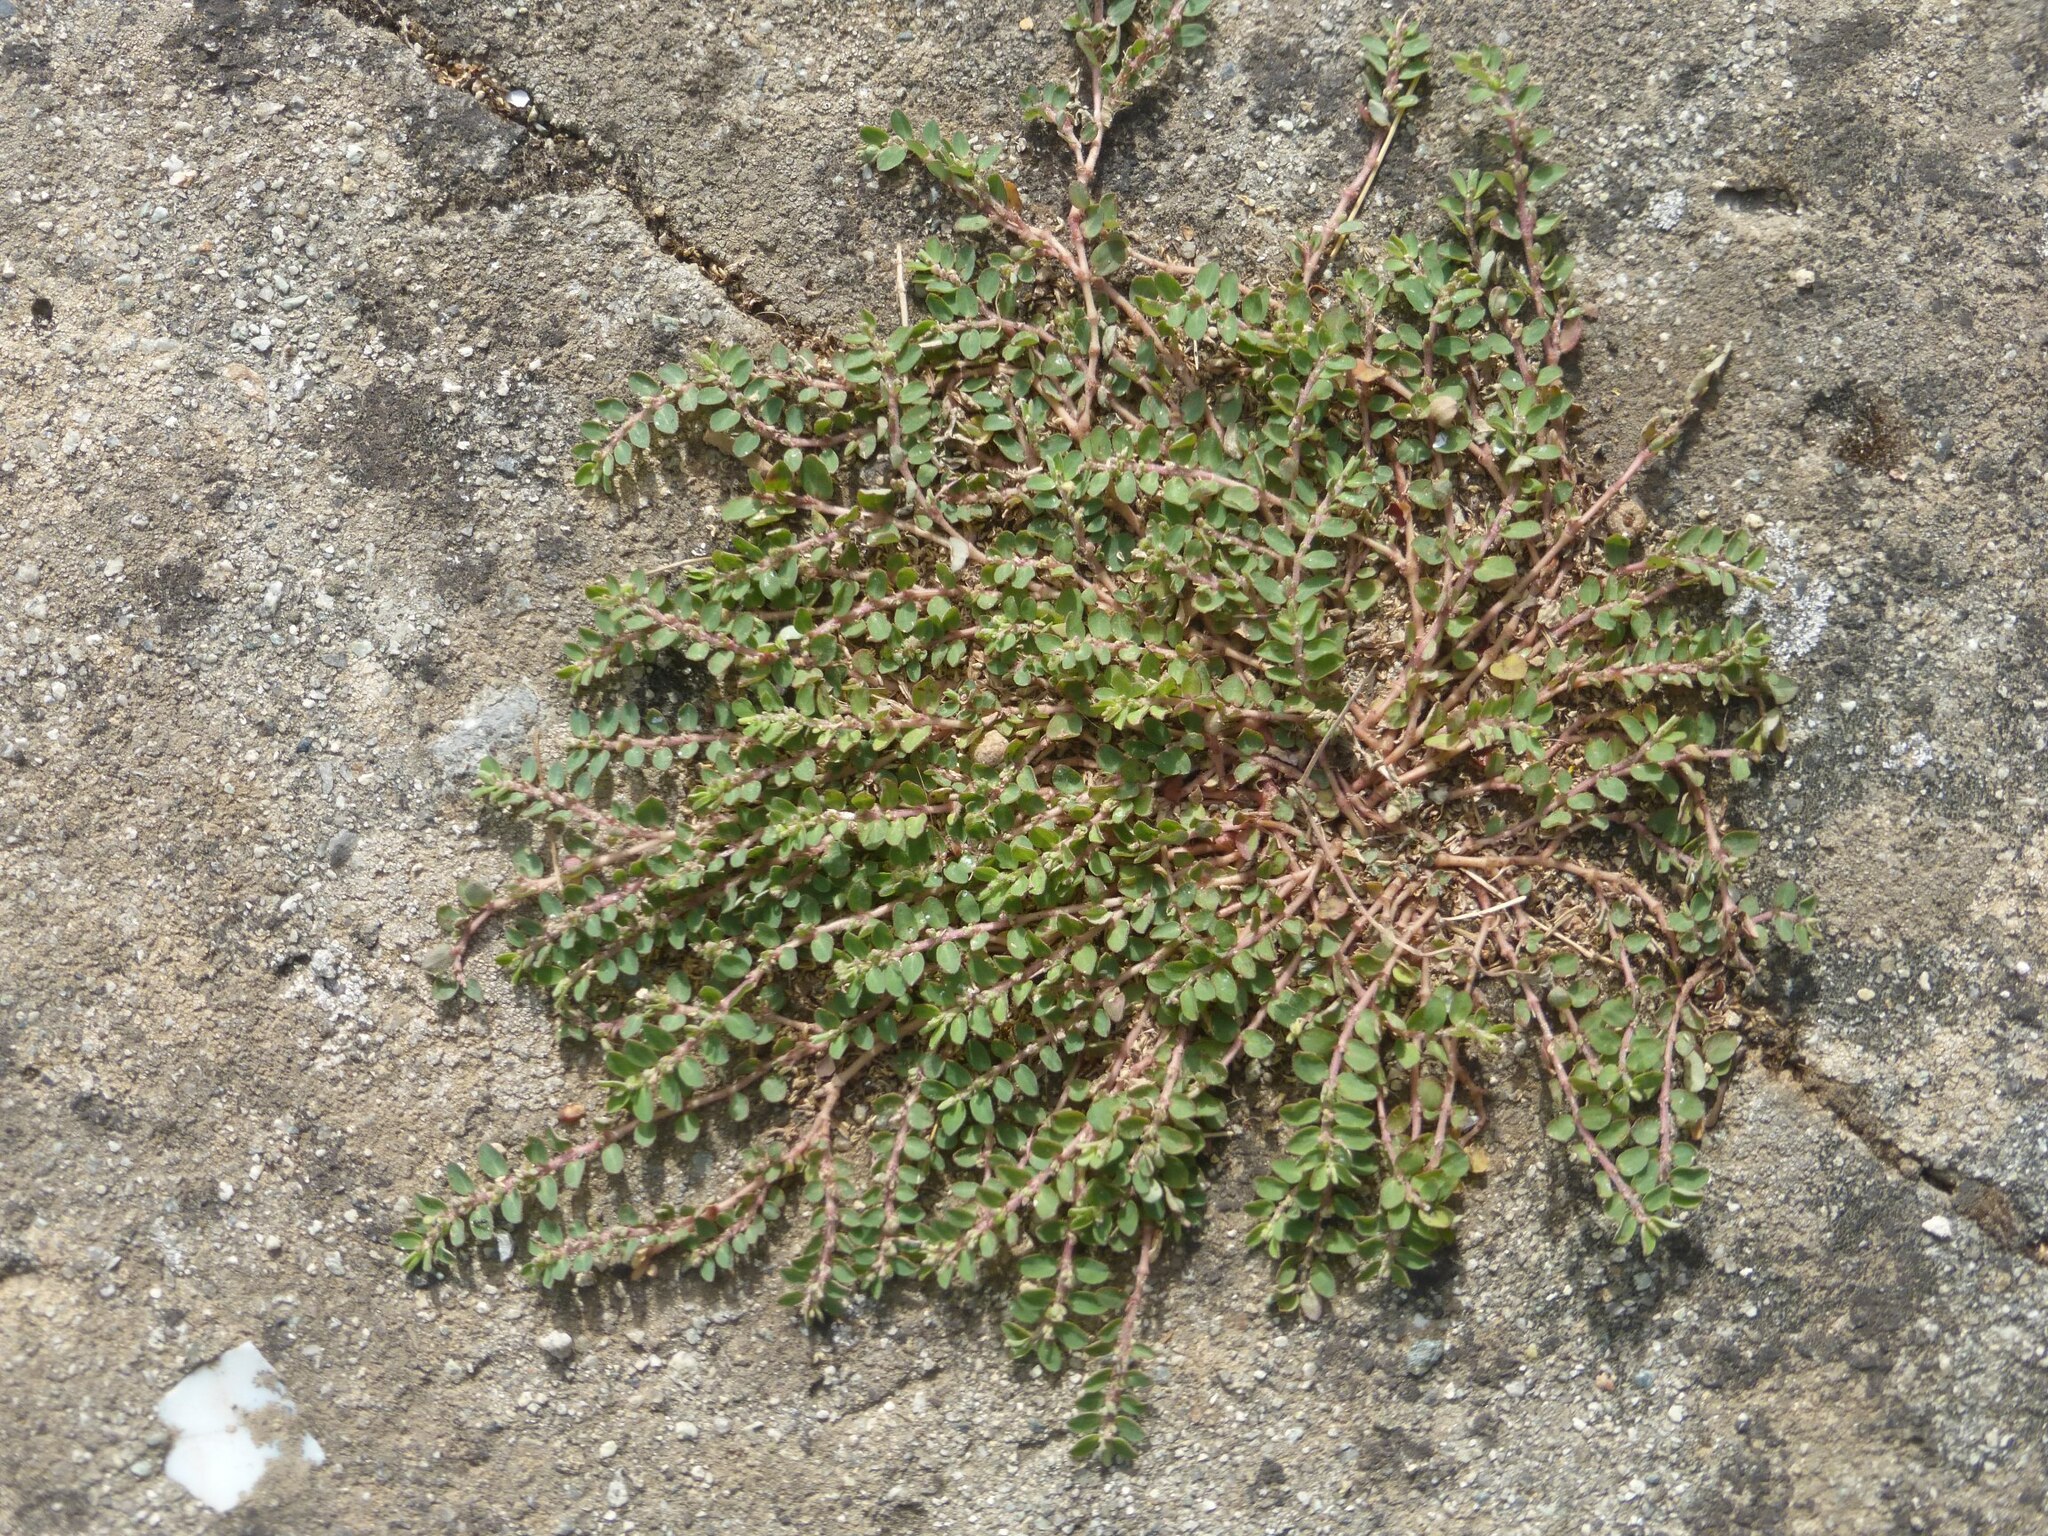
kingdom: Plantae
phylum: Tracheophyta
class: Magnoliopsida
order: Malpighiales
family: Euphorbiaceae
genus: Euphorbia
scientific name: Euphorbia prostrata
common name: Prostrate sandmat
